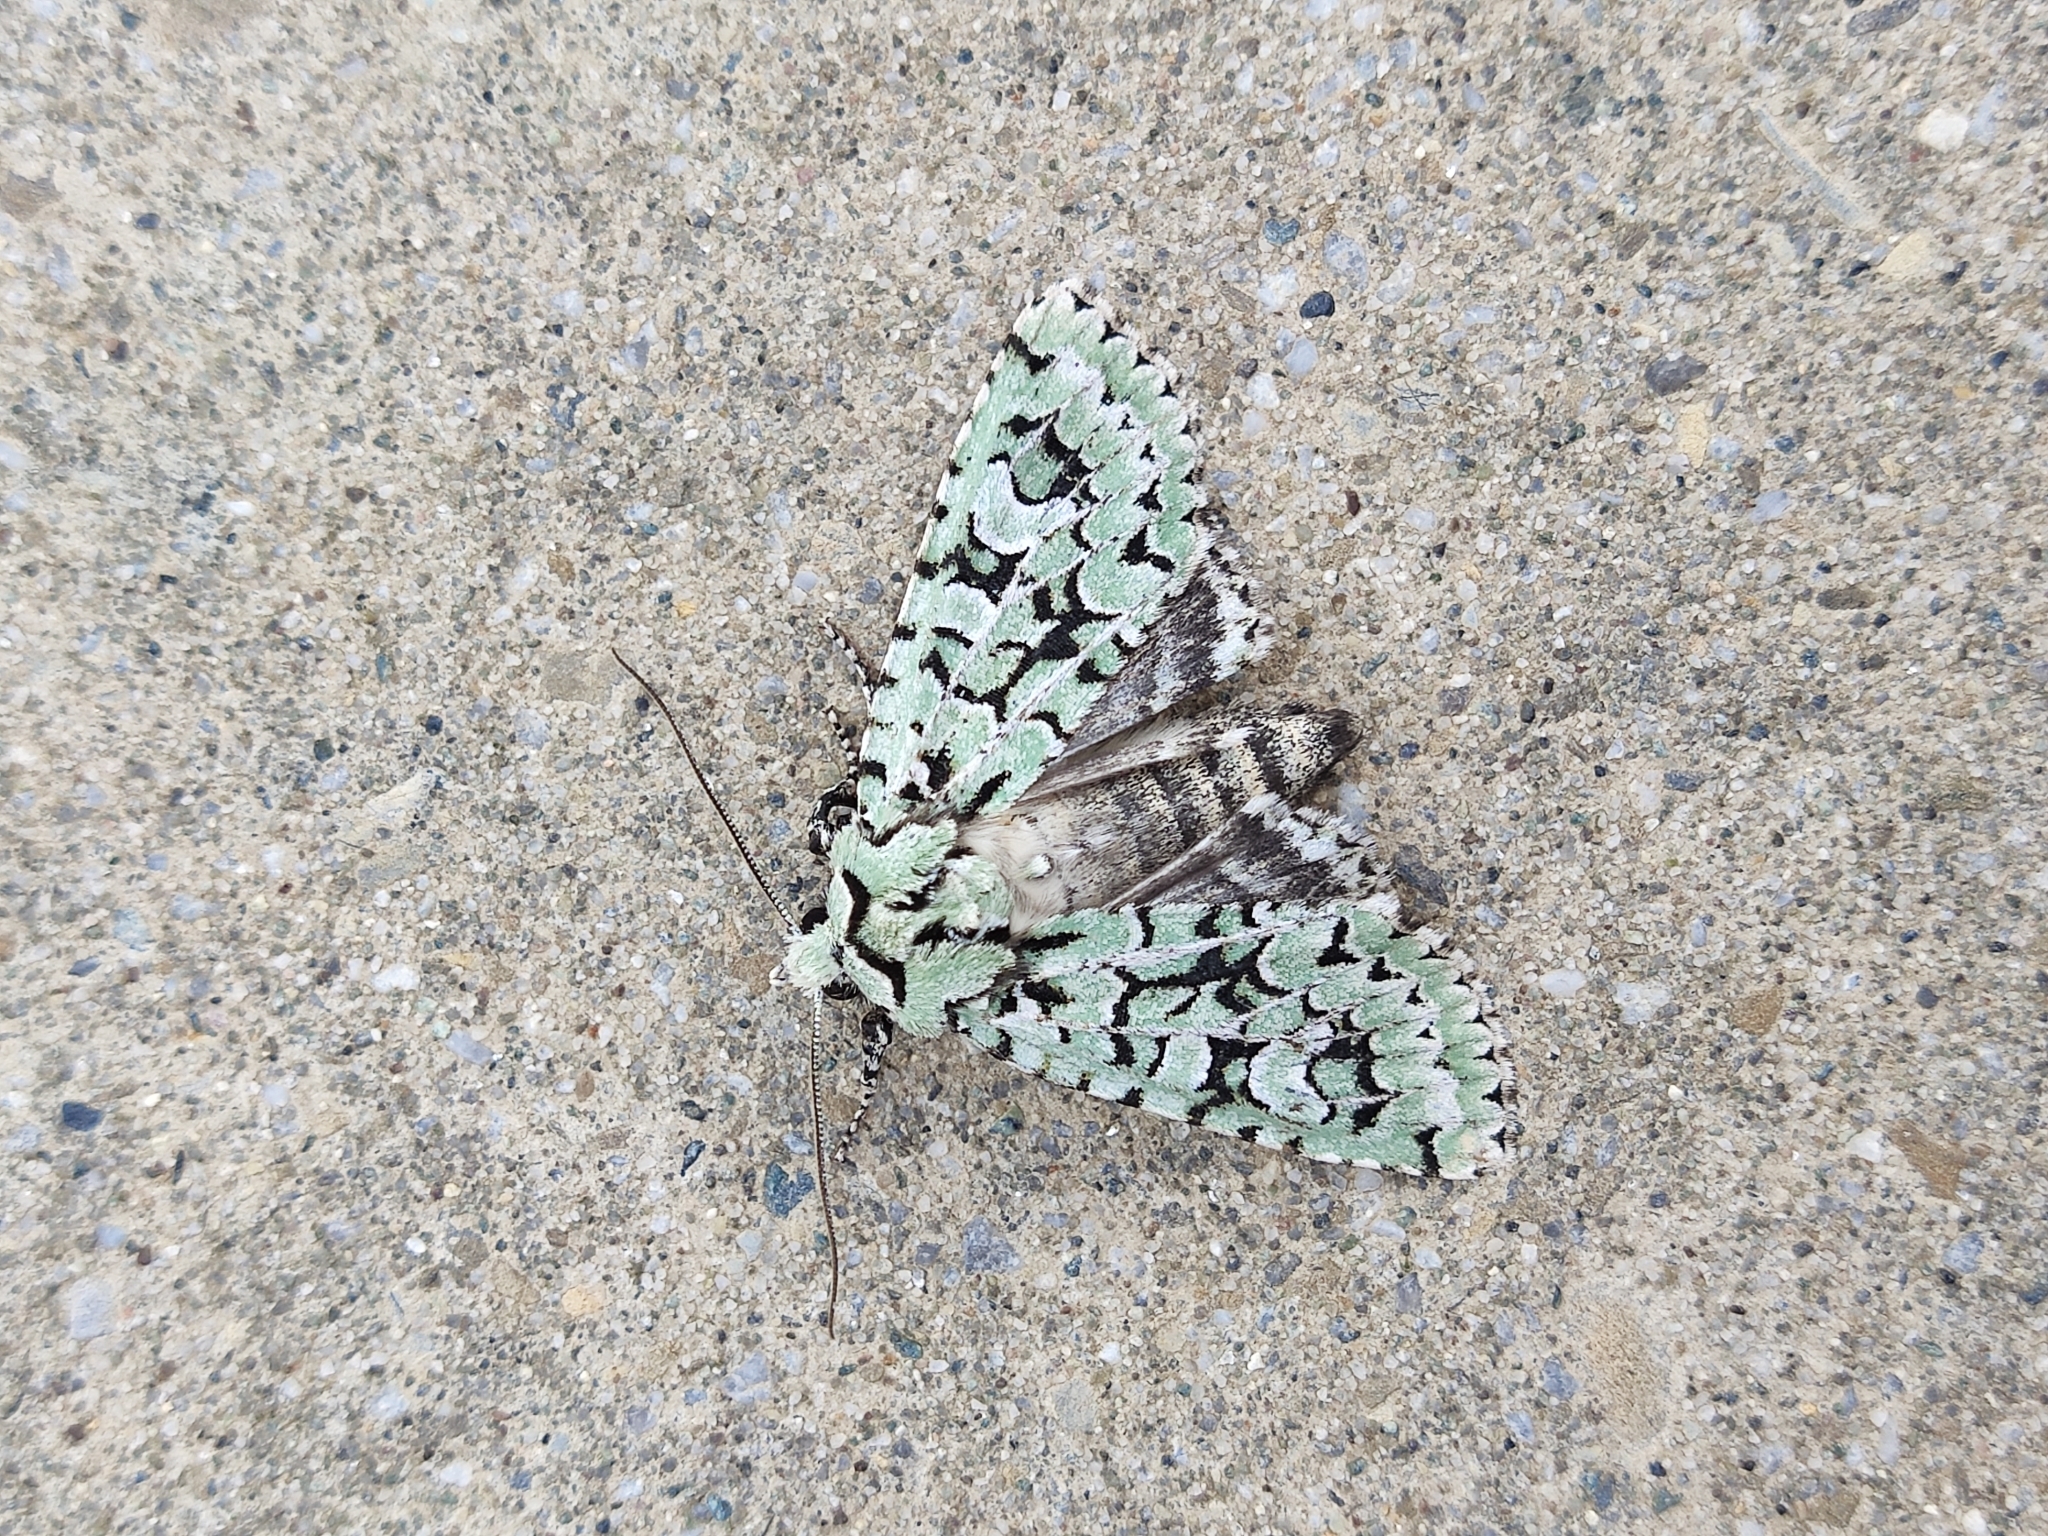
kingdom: Animalia
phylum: Arthropoda
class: Insecta
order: Lepidoptera
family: Noctuidae
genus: Griposia
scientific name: Griposia aprilina
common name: Merveille du jour
